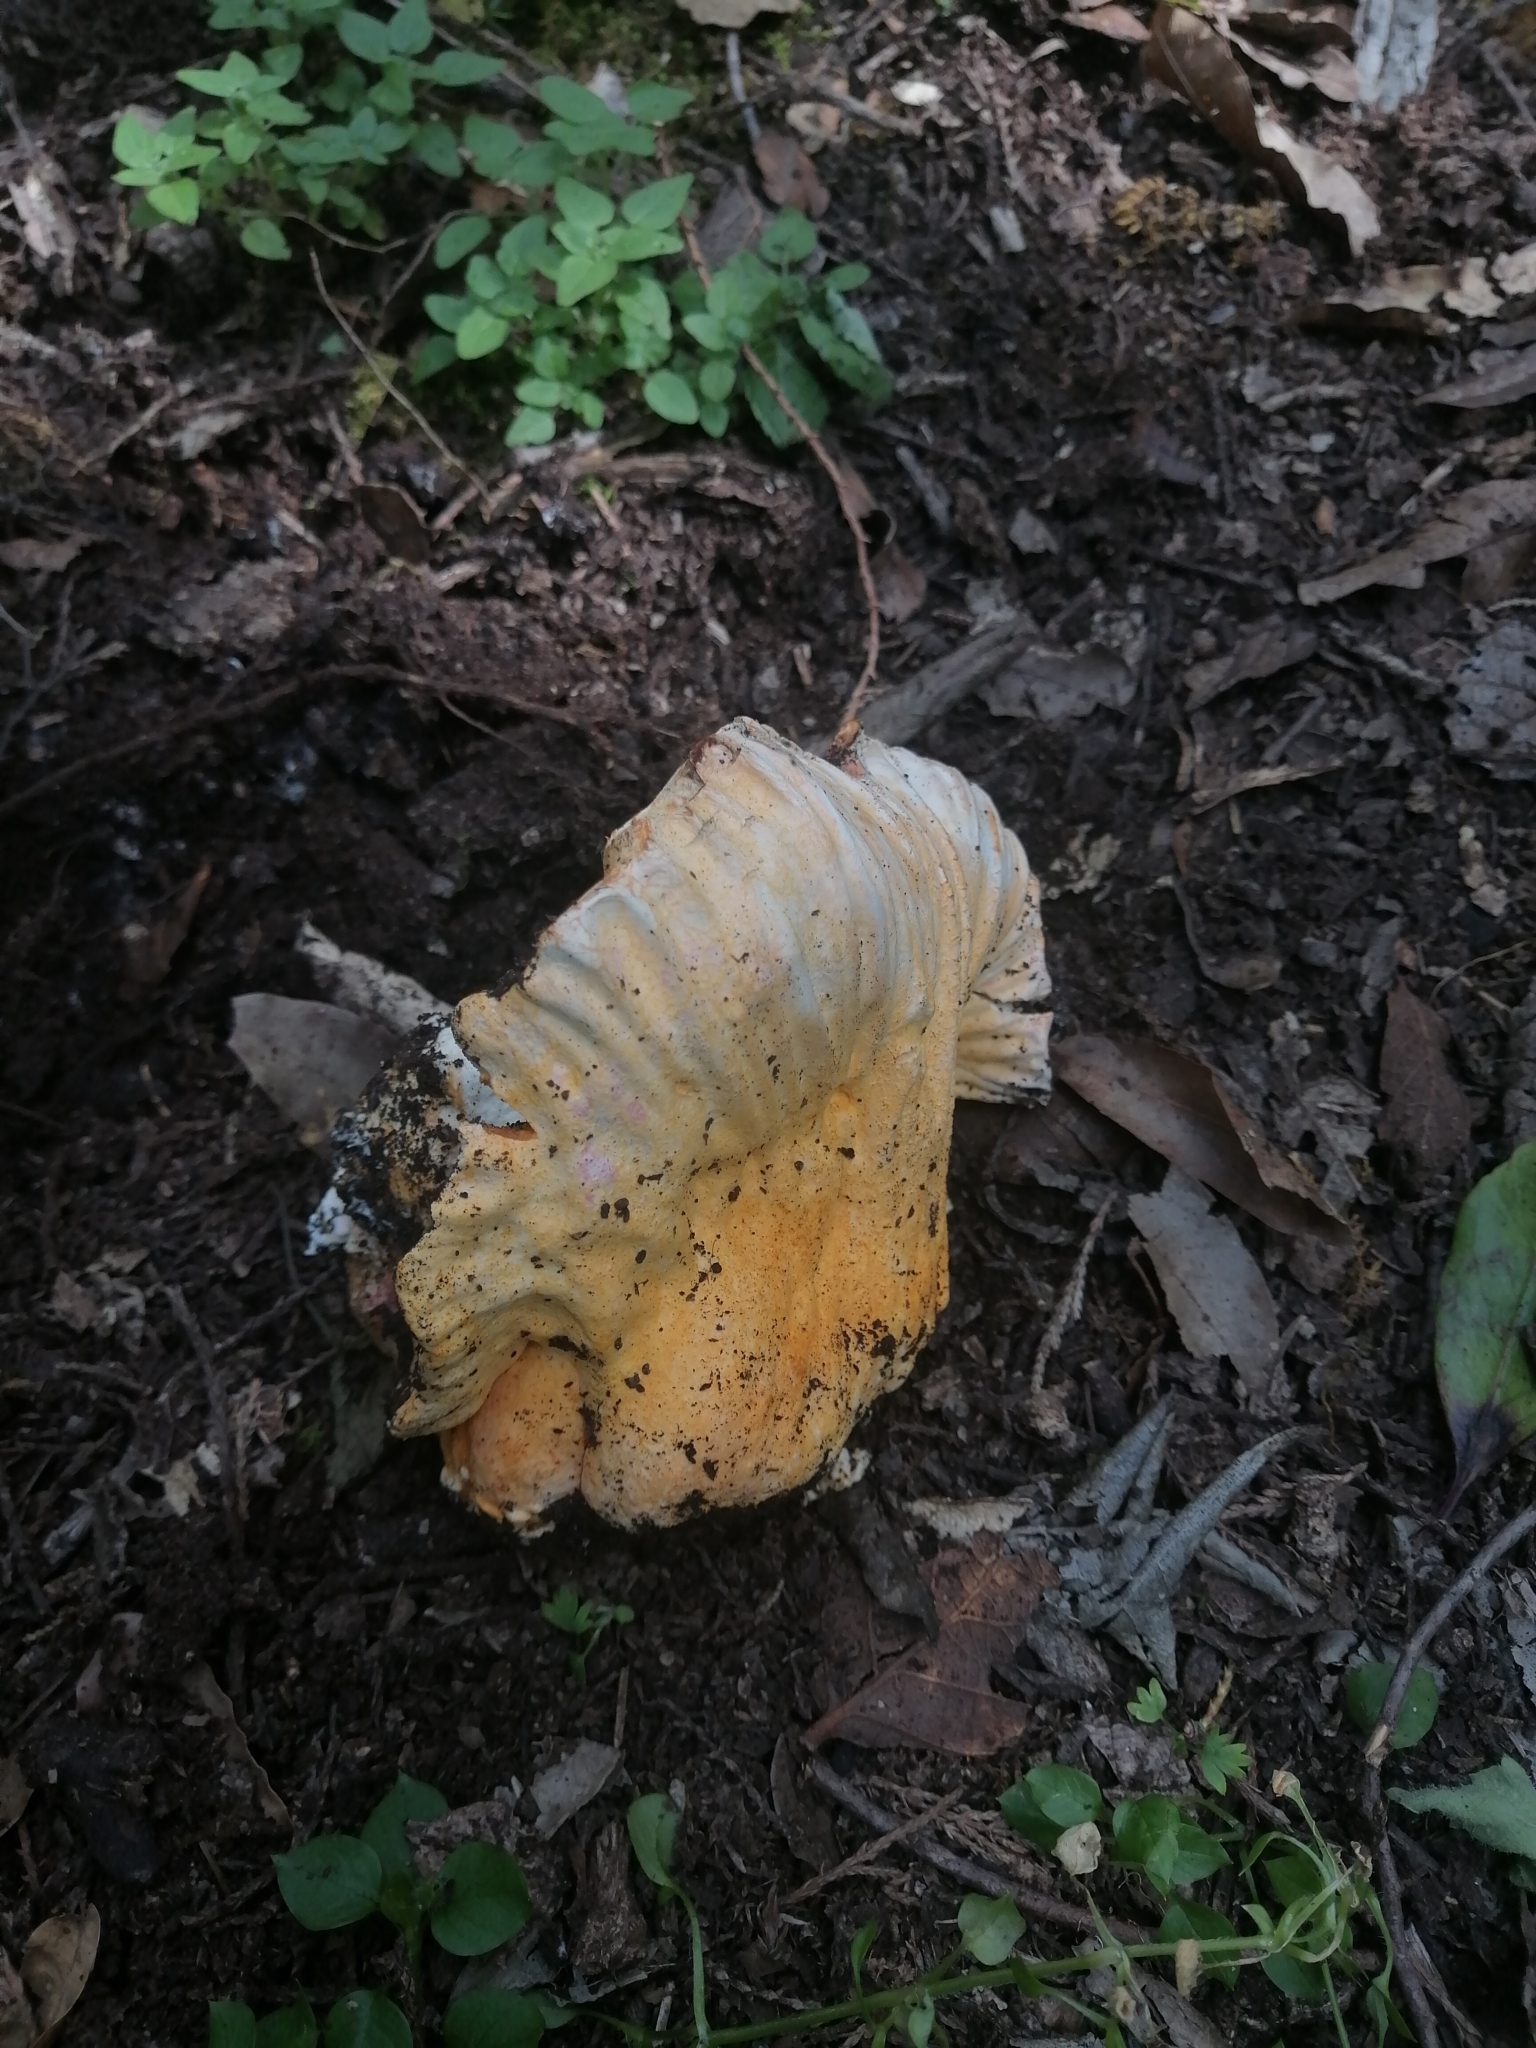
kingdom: Fungi
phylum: Ascomycota
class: Sordariomycetes
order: Hypocreales
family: Hypocreaceae
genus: Hypomyces
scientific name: Hypomyces lactifluorum
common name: Lobster mushroom
